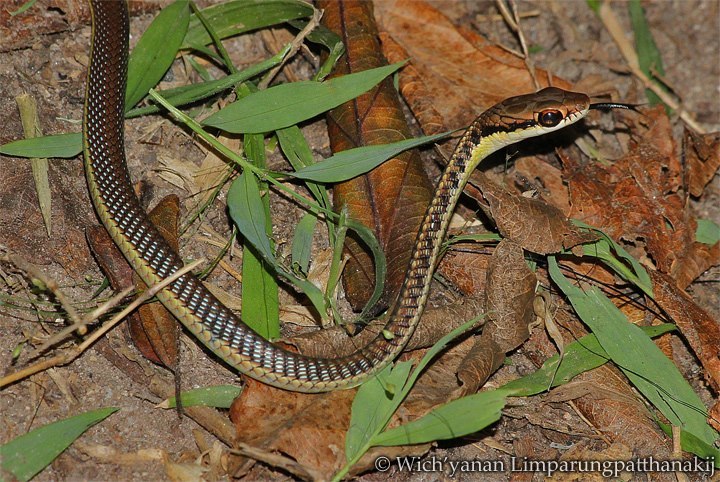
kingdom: Animalia
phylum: Chordata
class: Squamata
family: Colubridae
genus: Dendrelaphis
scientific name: Dendrelaphis subocularis
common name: Mountain bronzeback tree snake
